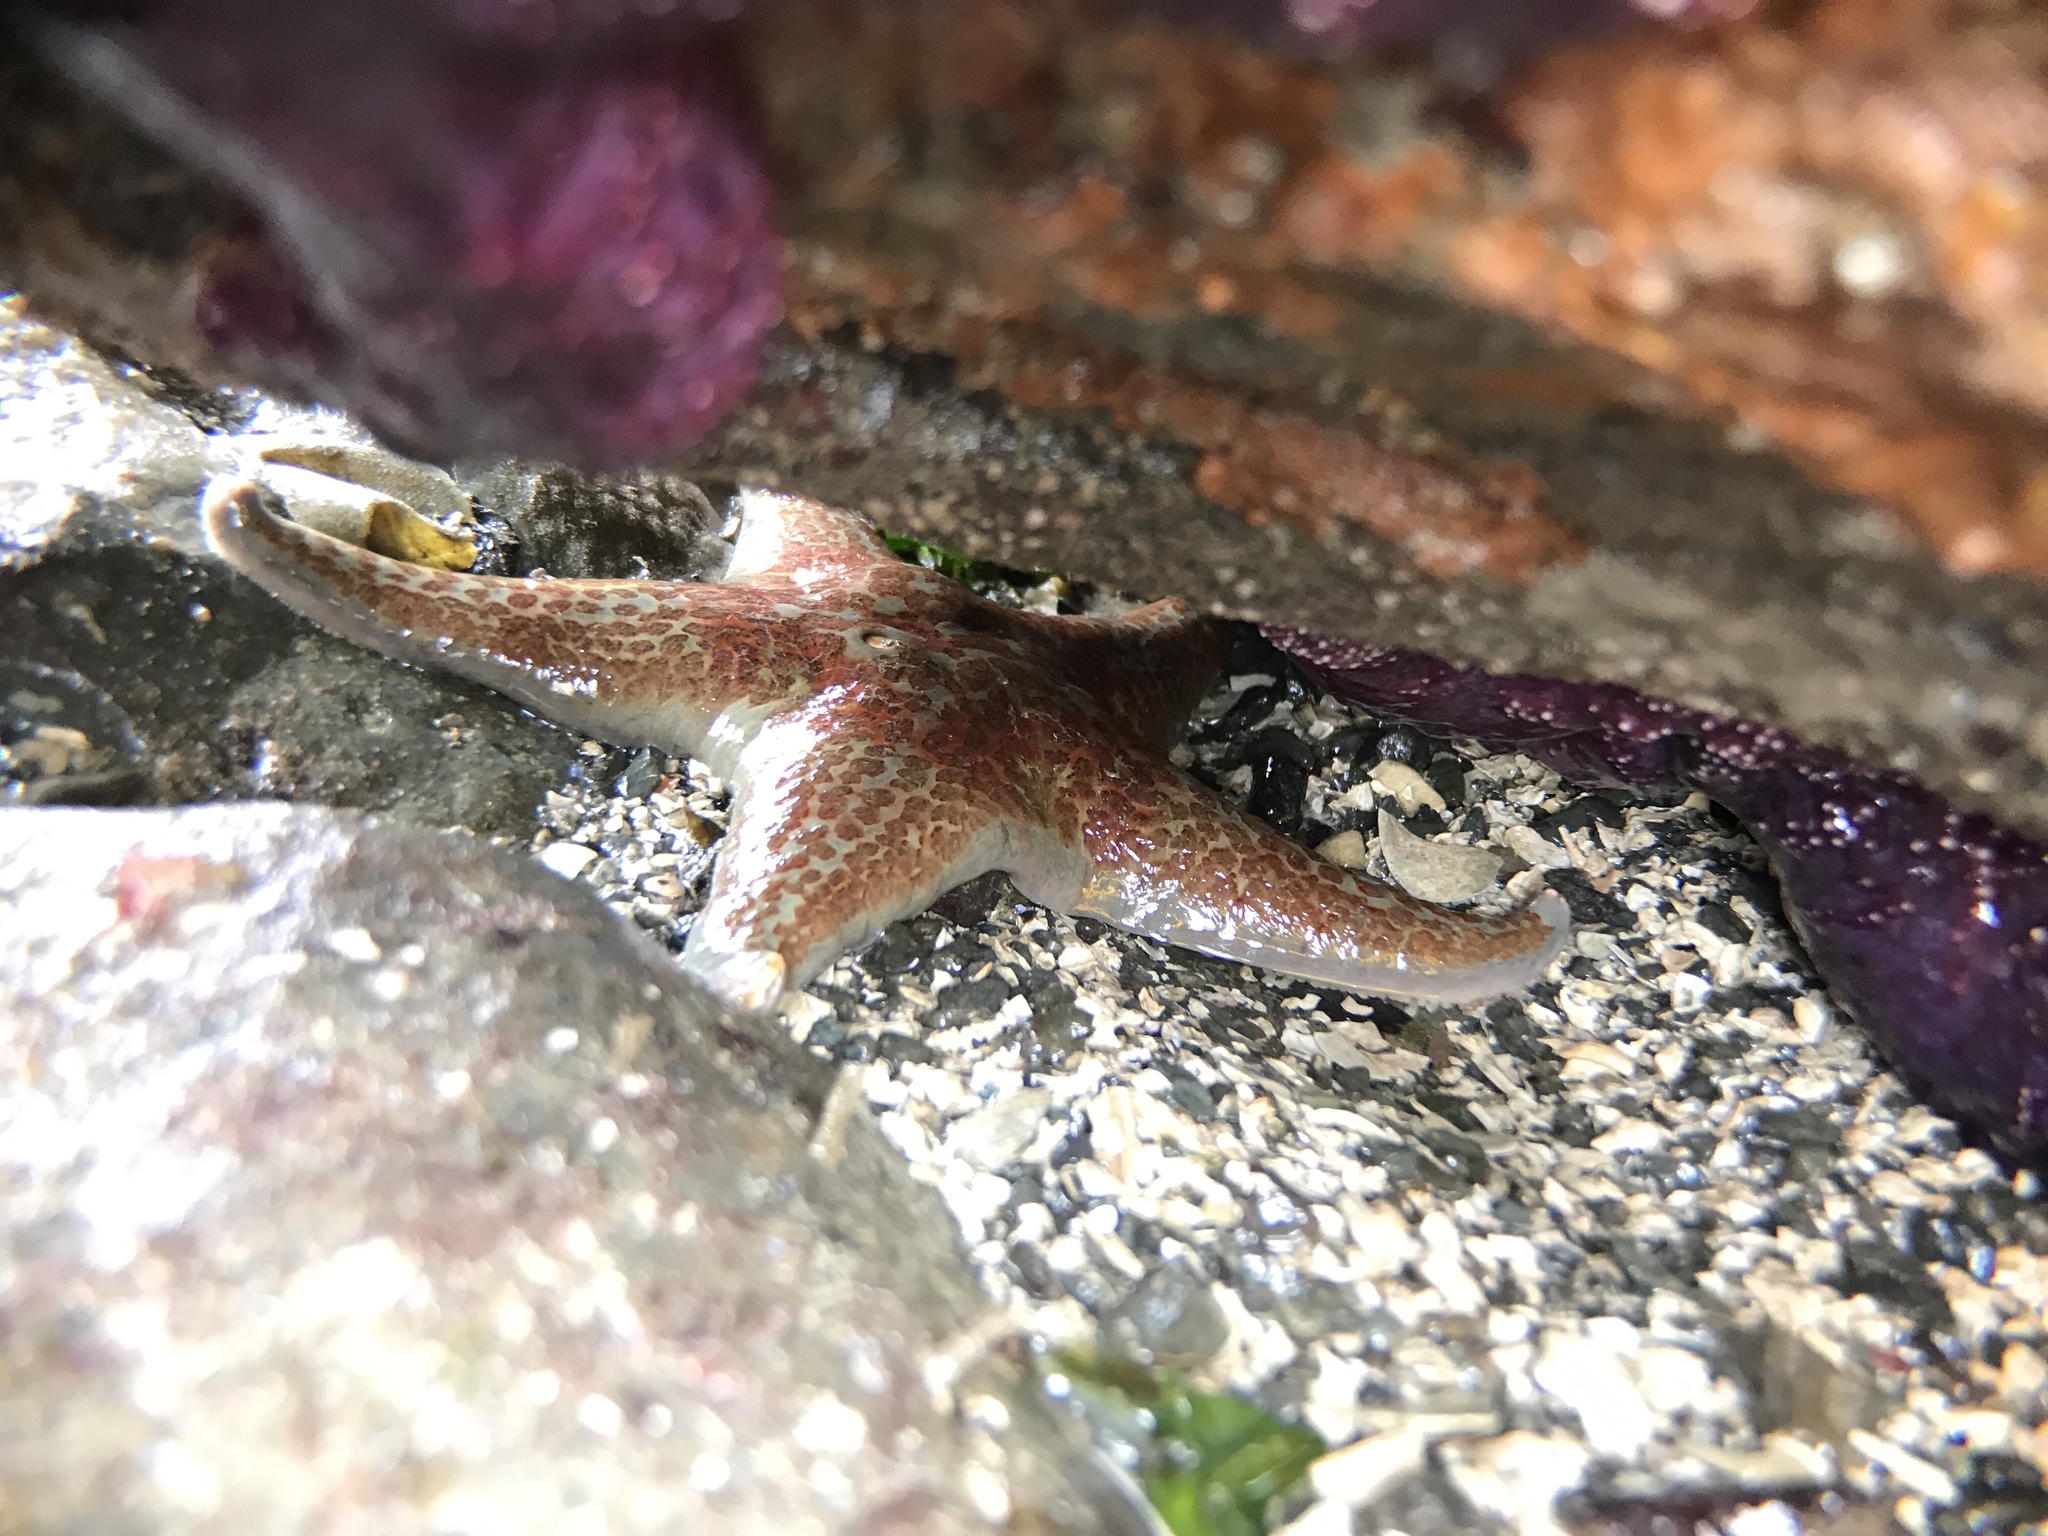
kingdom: Animalia
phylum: Echinodermata
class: Asteroidea
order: Valvatida
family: Asteropseidae
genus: Dermasterias
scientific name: Dermasterias imbricata
